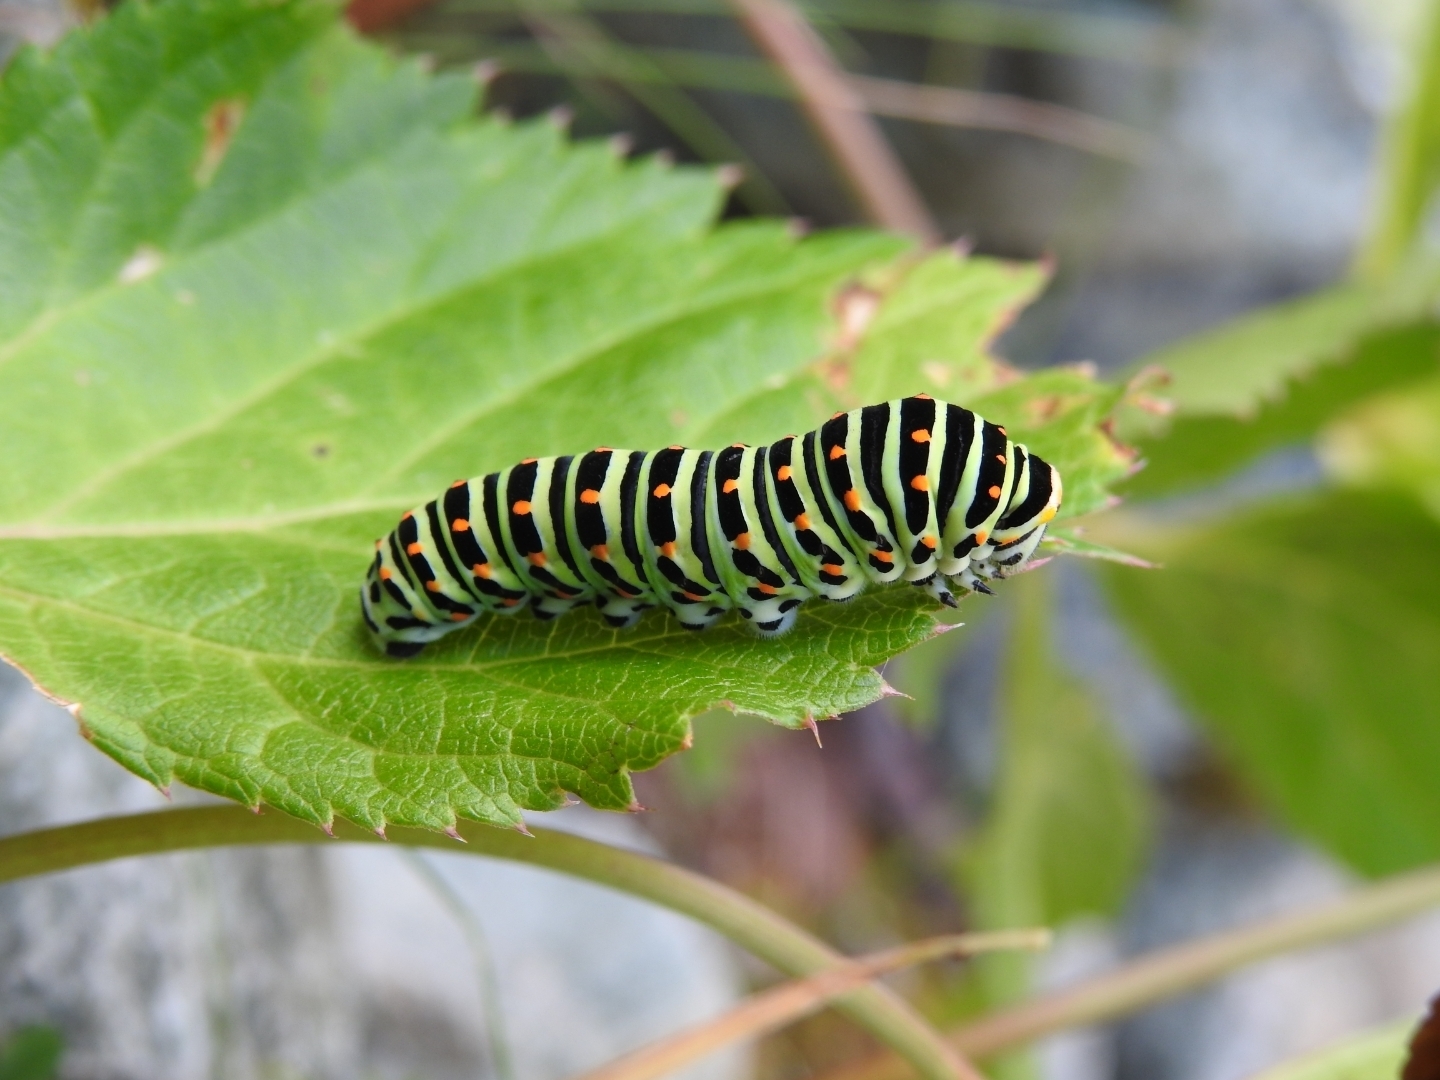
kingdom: Animalia
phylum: Arthropoda
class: Insecta
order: Lepidoptera
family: Papilionidae
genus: Papilio
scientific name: Papilio machaon
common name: Swallowtail
